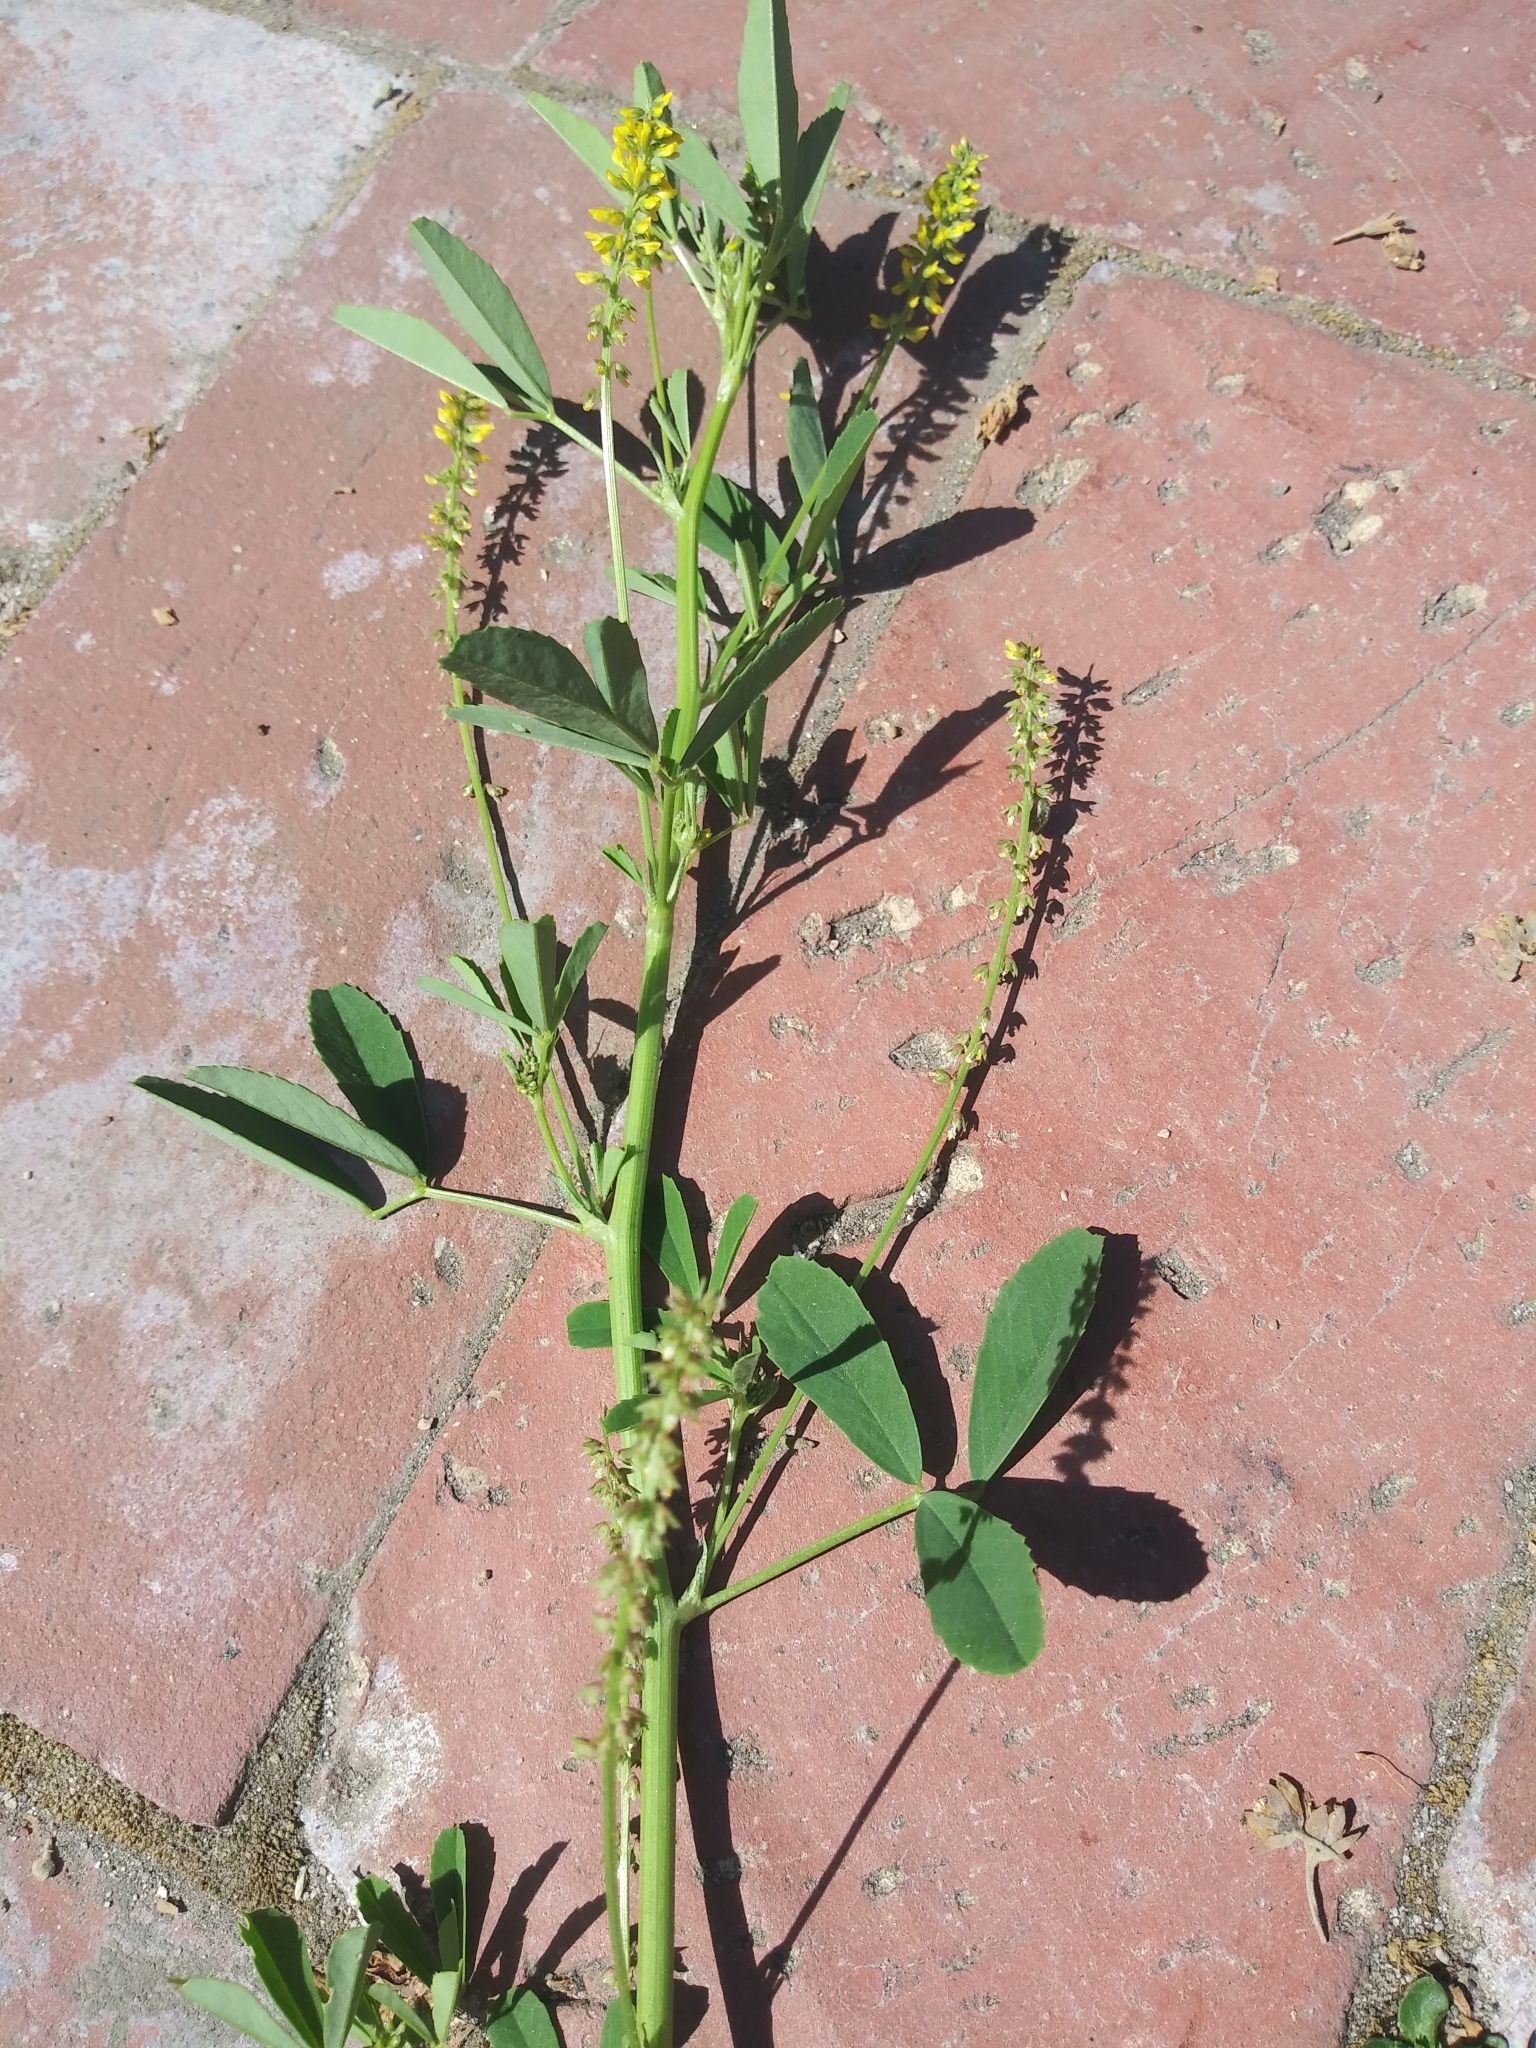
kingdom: Plantae
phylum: Tracheophyta
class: Magnoliopsida
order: Fabales
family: Fabaceae
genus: Melilotus
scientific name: Melilotus indicus
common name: Small melilot
